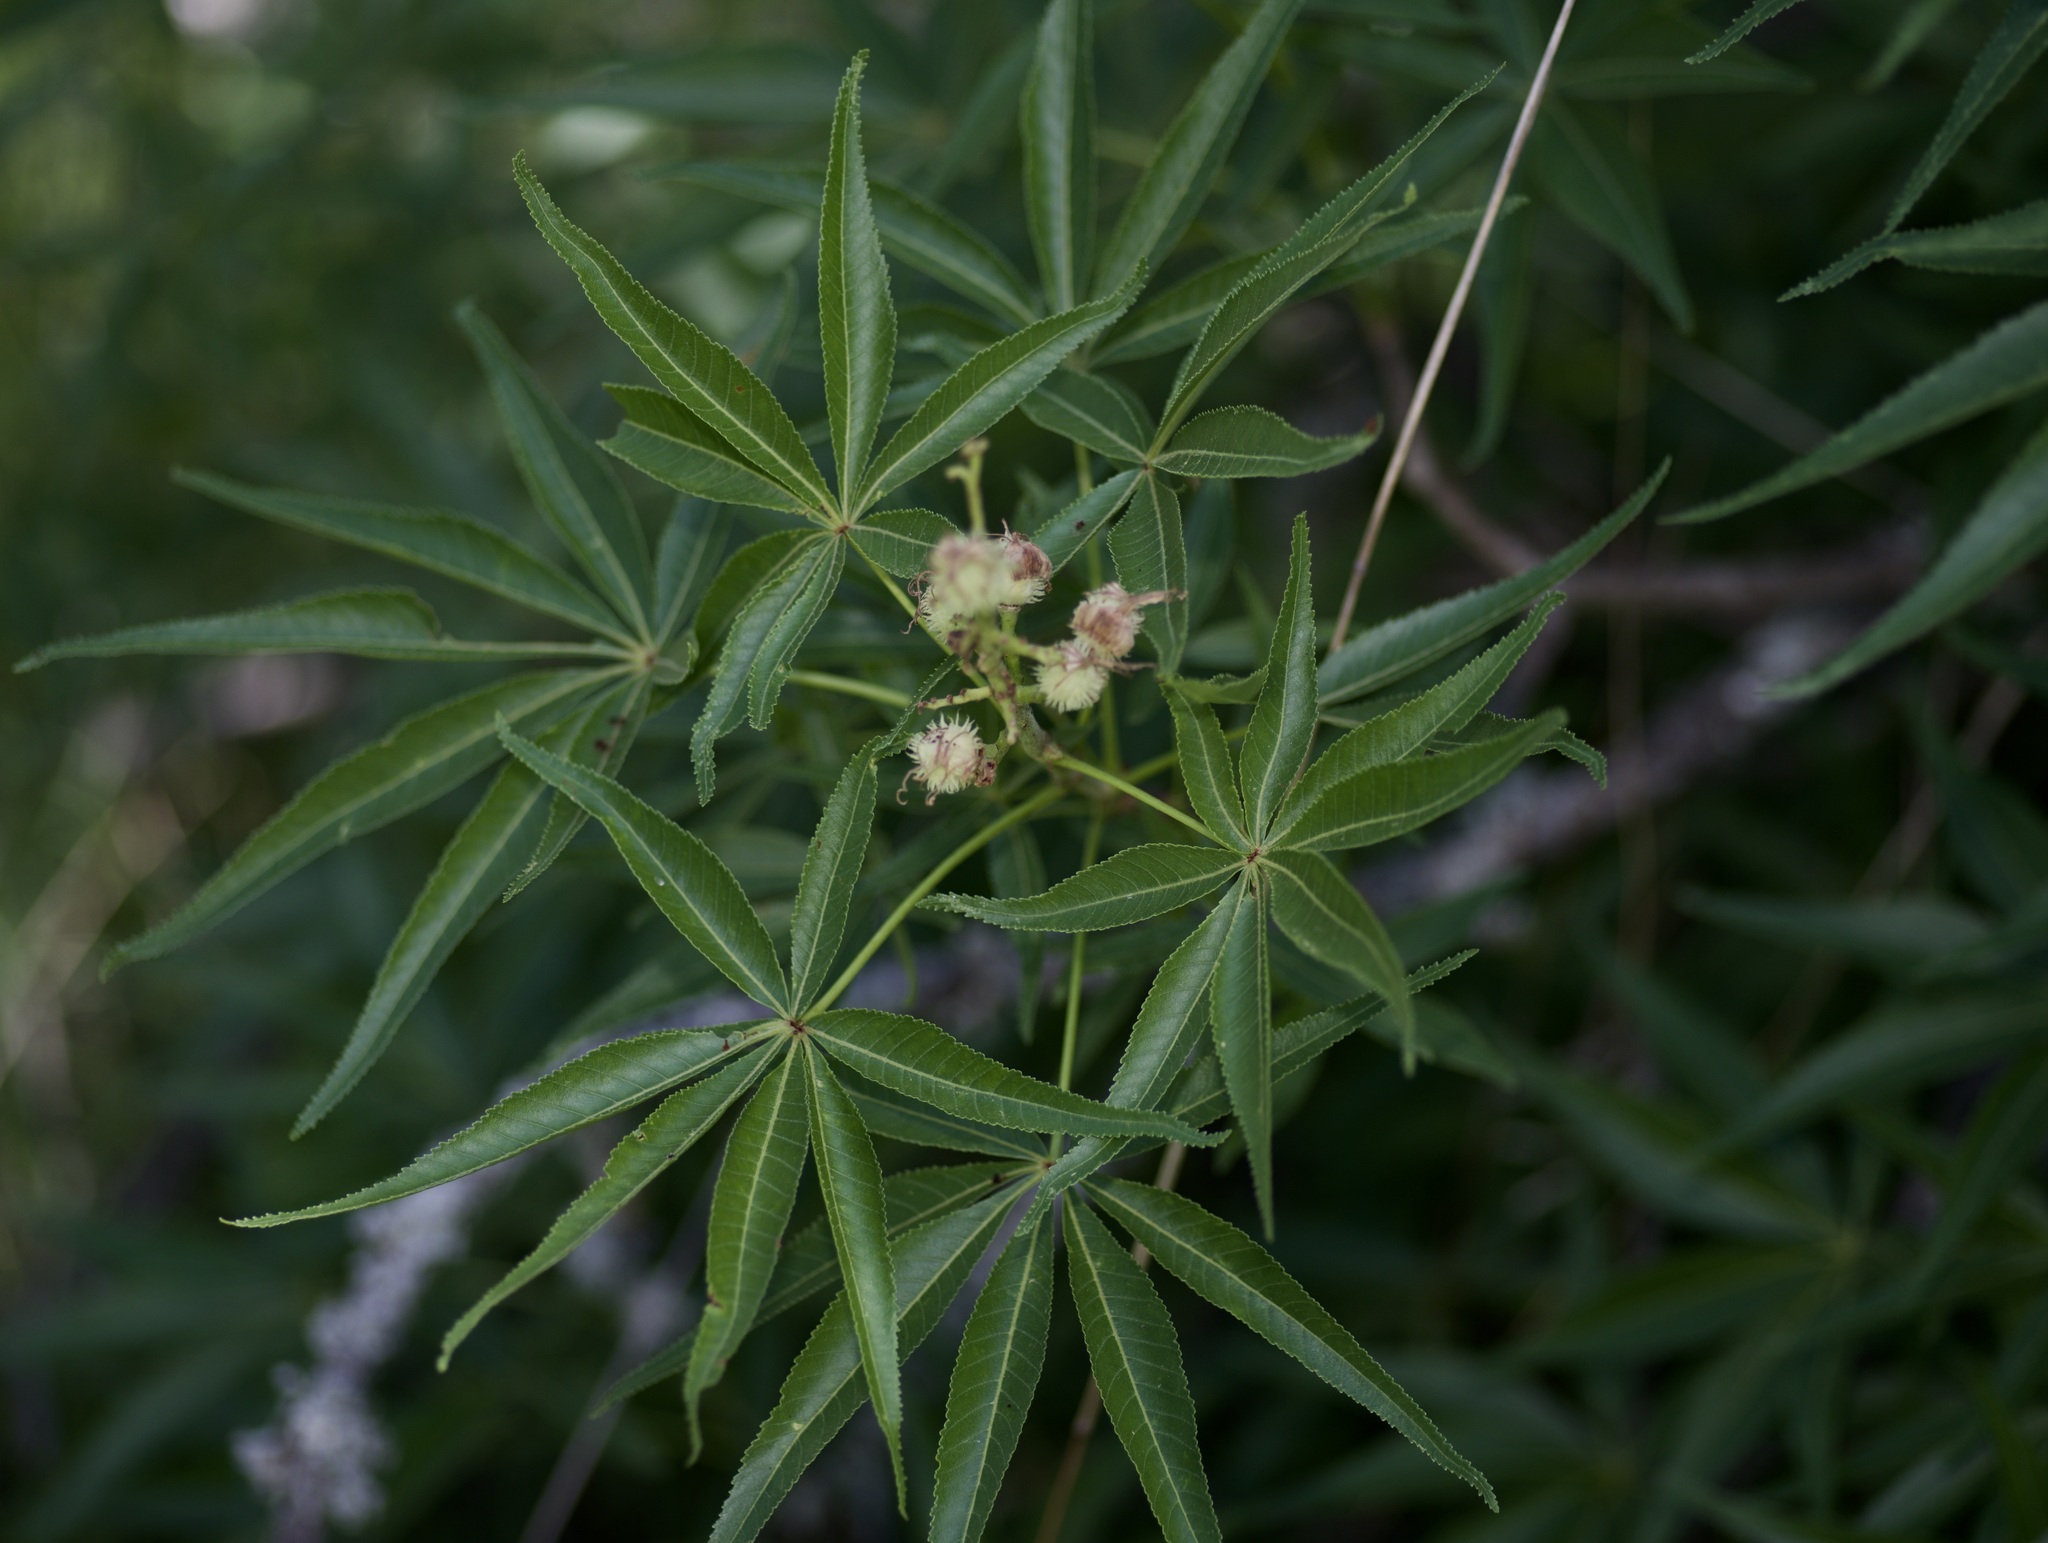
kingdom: Plantae
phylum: Tracheophyta
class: Magnoliopsida
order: Sapindales
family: Sapindaceae
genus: Aesculus
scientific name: Aesculus glabra
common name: Ohio buckeye
